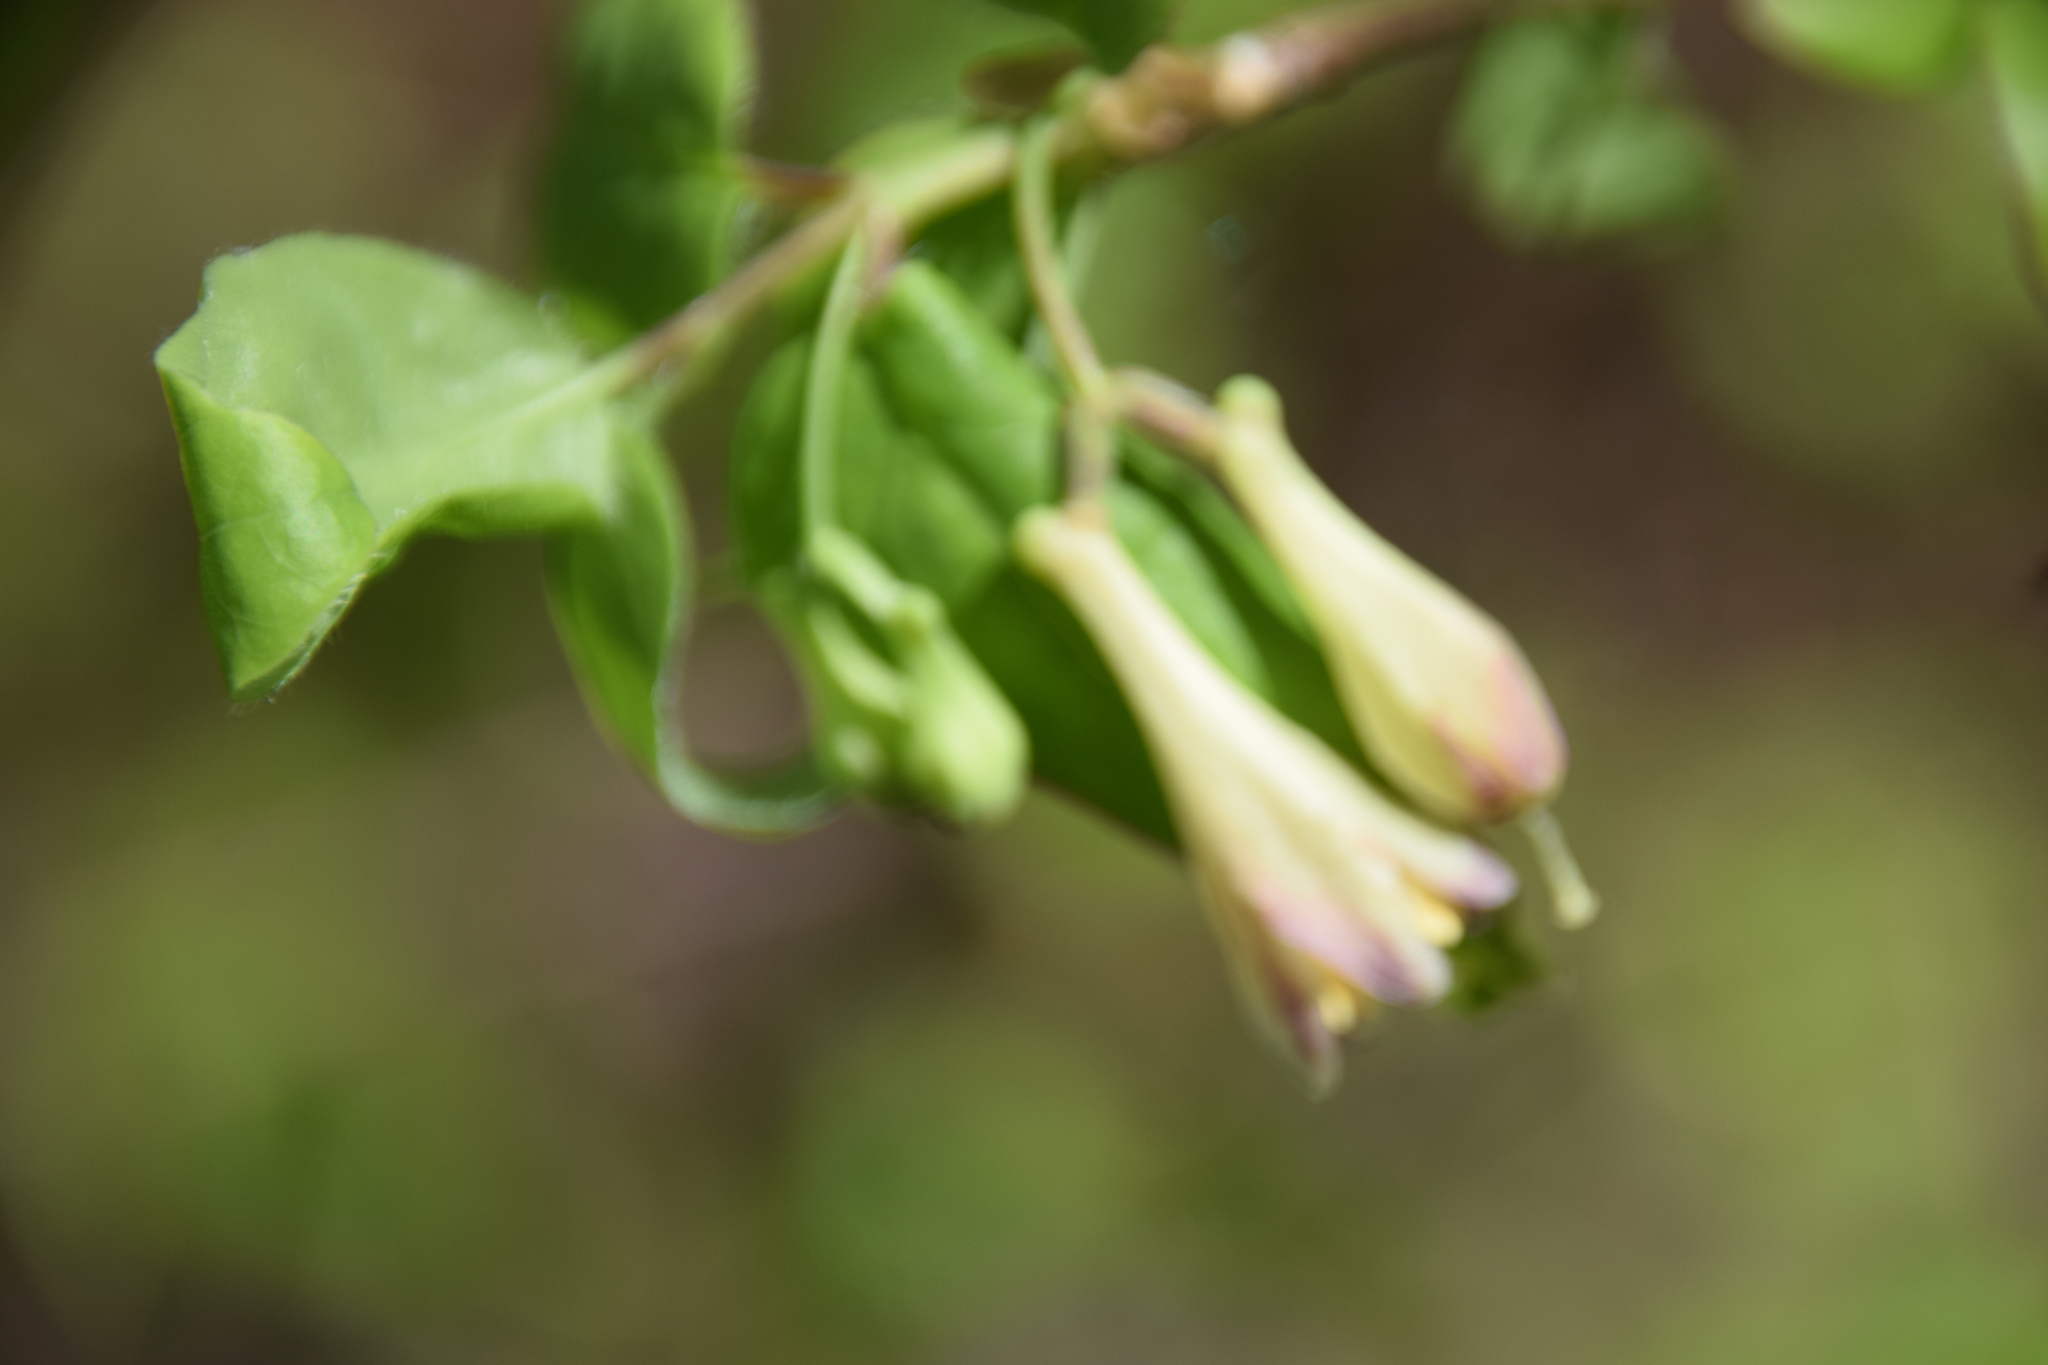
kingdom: Plantae
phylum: Tracheophyta
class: Magnoliopsida
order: Dipsacales
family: Caprifoliaceae
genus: Lonicera
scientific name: Lonicera canadensis
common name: American fly-honeysuckle
